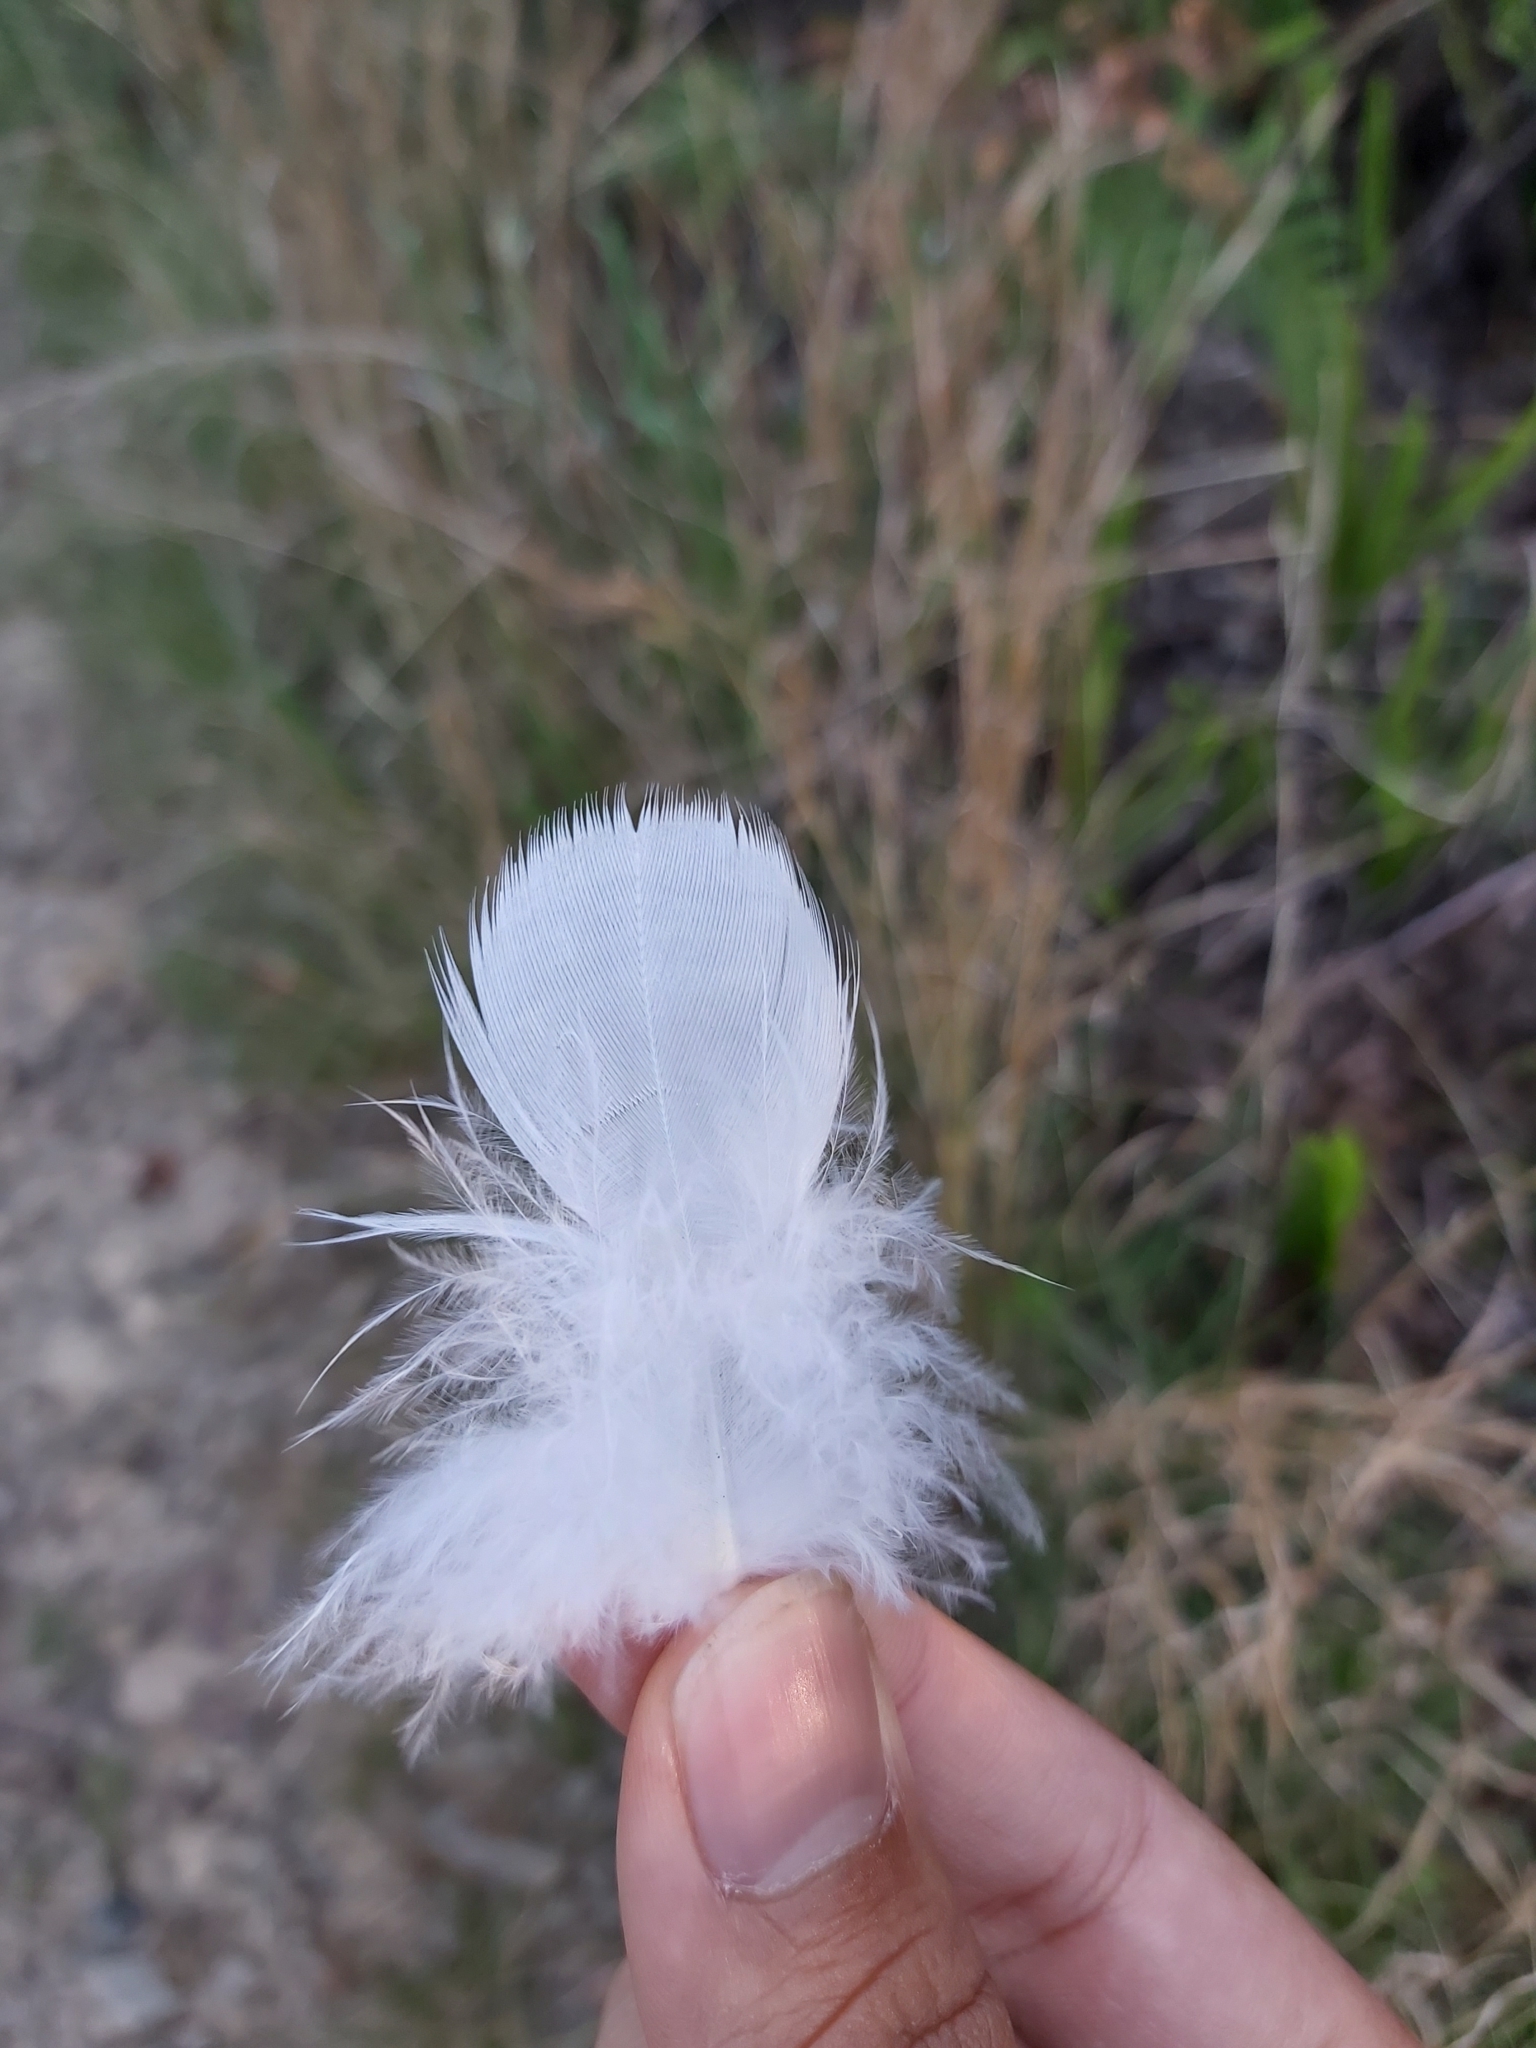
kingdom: Animalia
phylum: Chordata
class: Aves
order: Psittaciformes
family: Psittacidae
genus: Cacatua
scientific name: Cacatua galerita
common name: Sulphur-crested cockatoo
